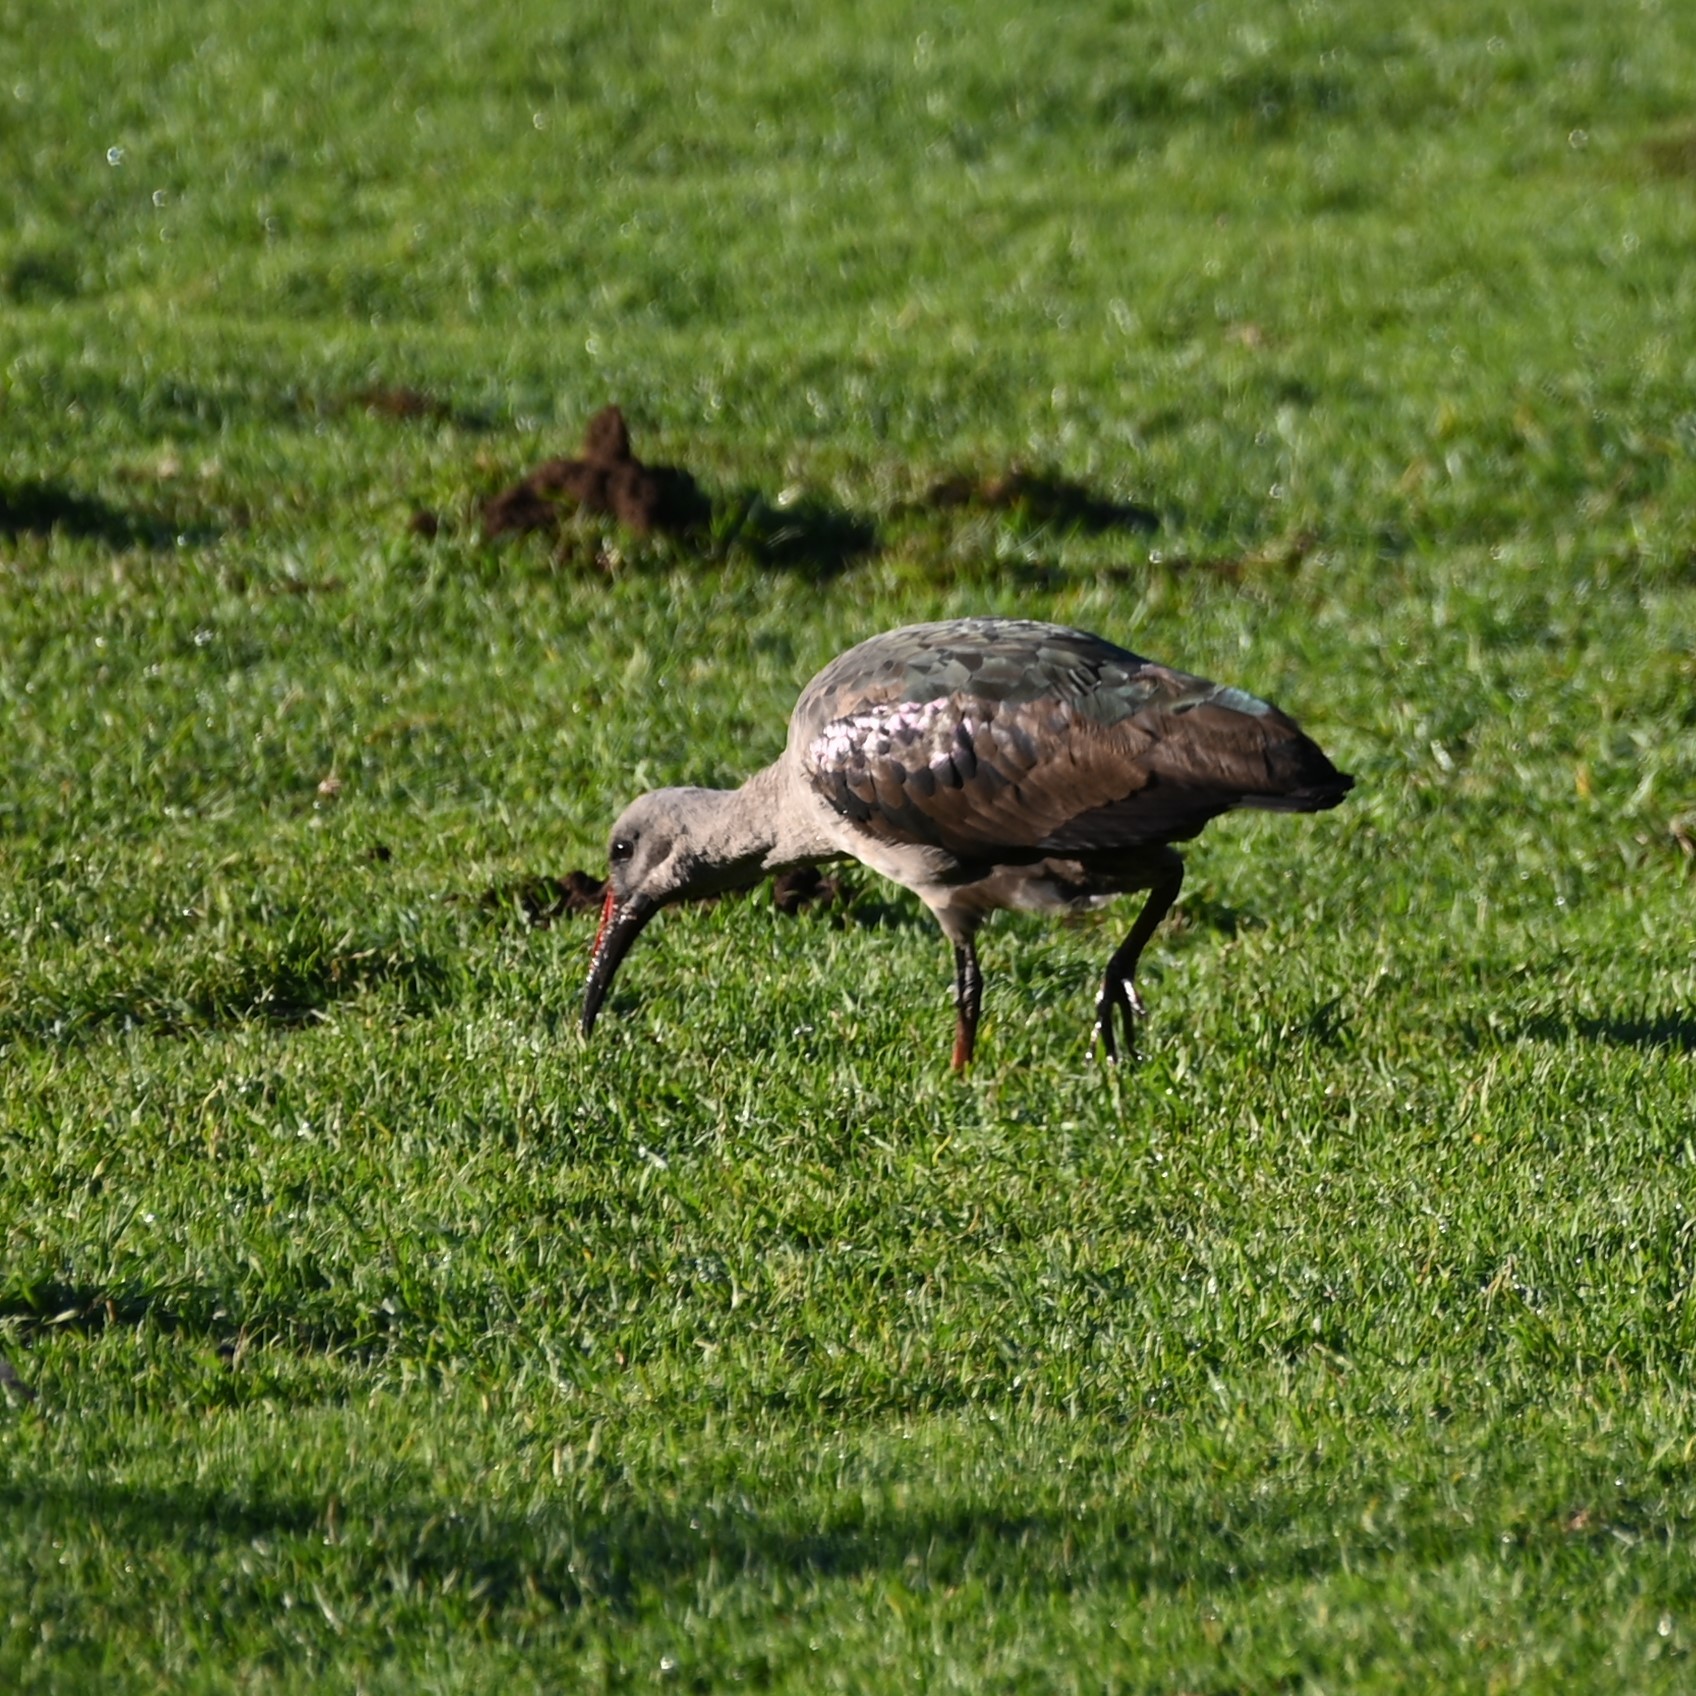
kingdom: Animalia
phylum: Chordata
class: Aves
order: Pelecaniformes
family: Threskiornithidae
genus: Bostrychia
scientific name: Bostrychia hagedash
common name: Hadada ibis
